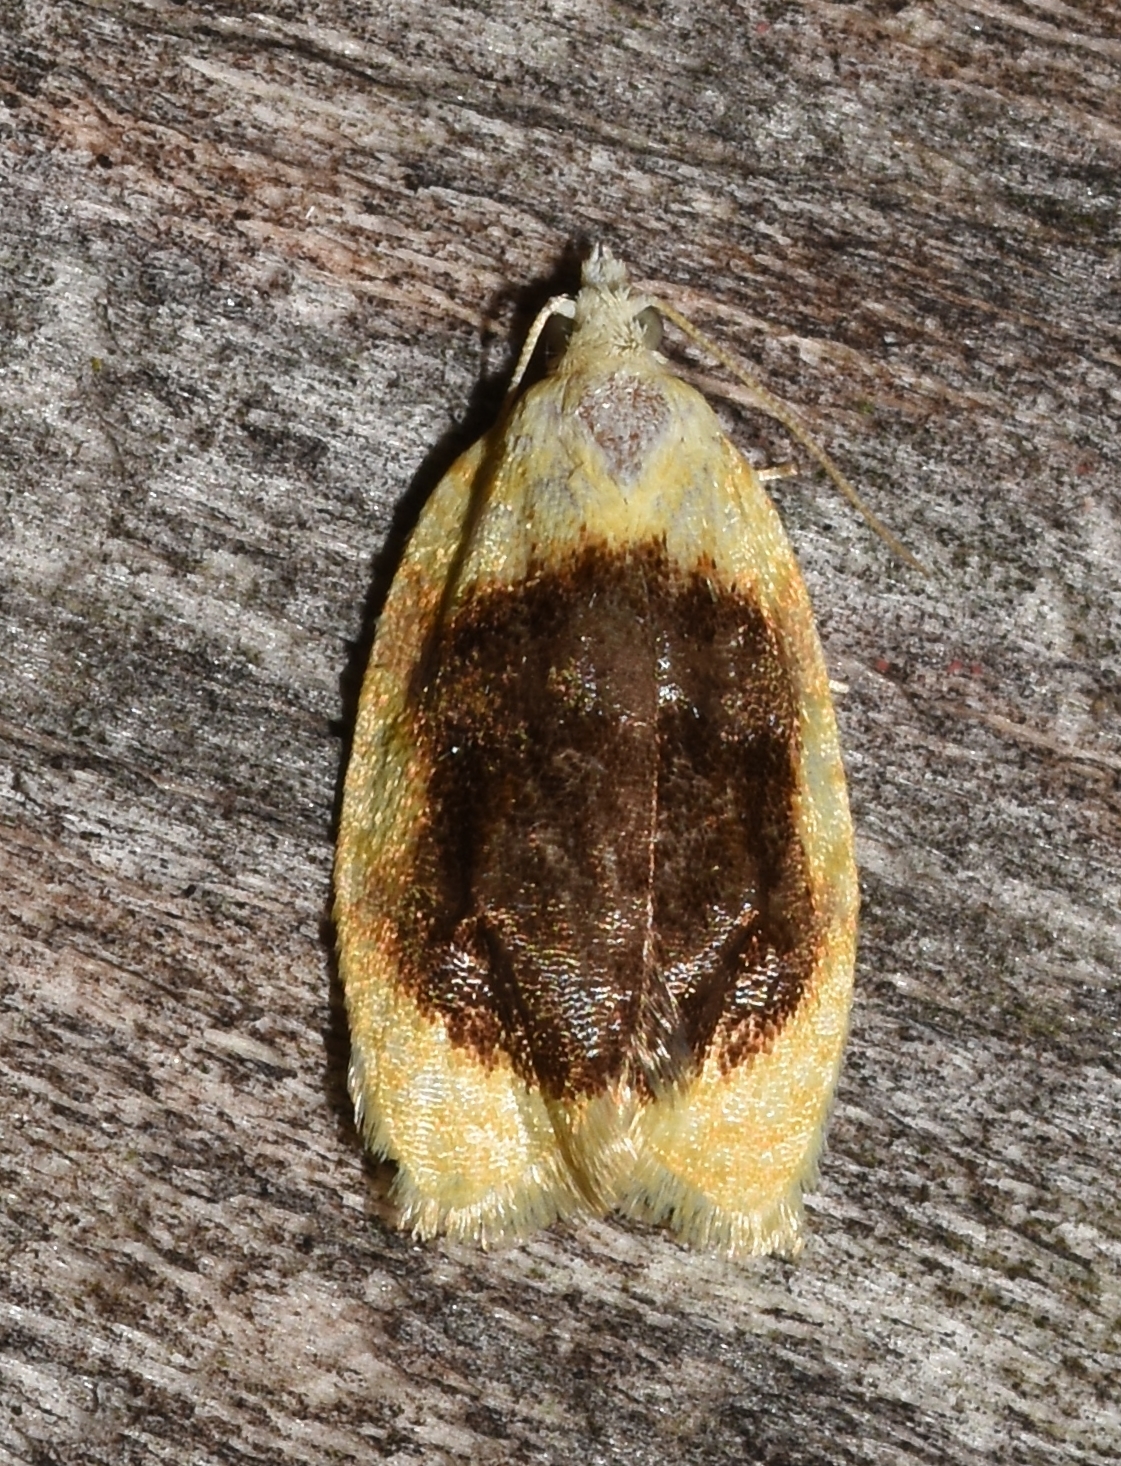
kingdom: Animalia
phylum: Arthropoda
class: Insecta
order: Lepidoptera
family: Tortricidae
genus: Acleris
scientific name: Acleris semipurpurana
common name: Oak leaftier moth
